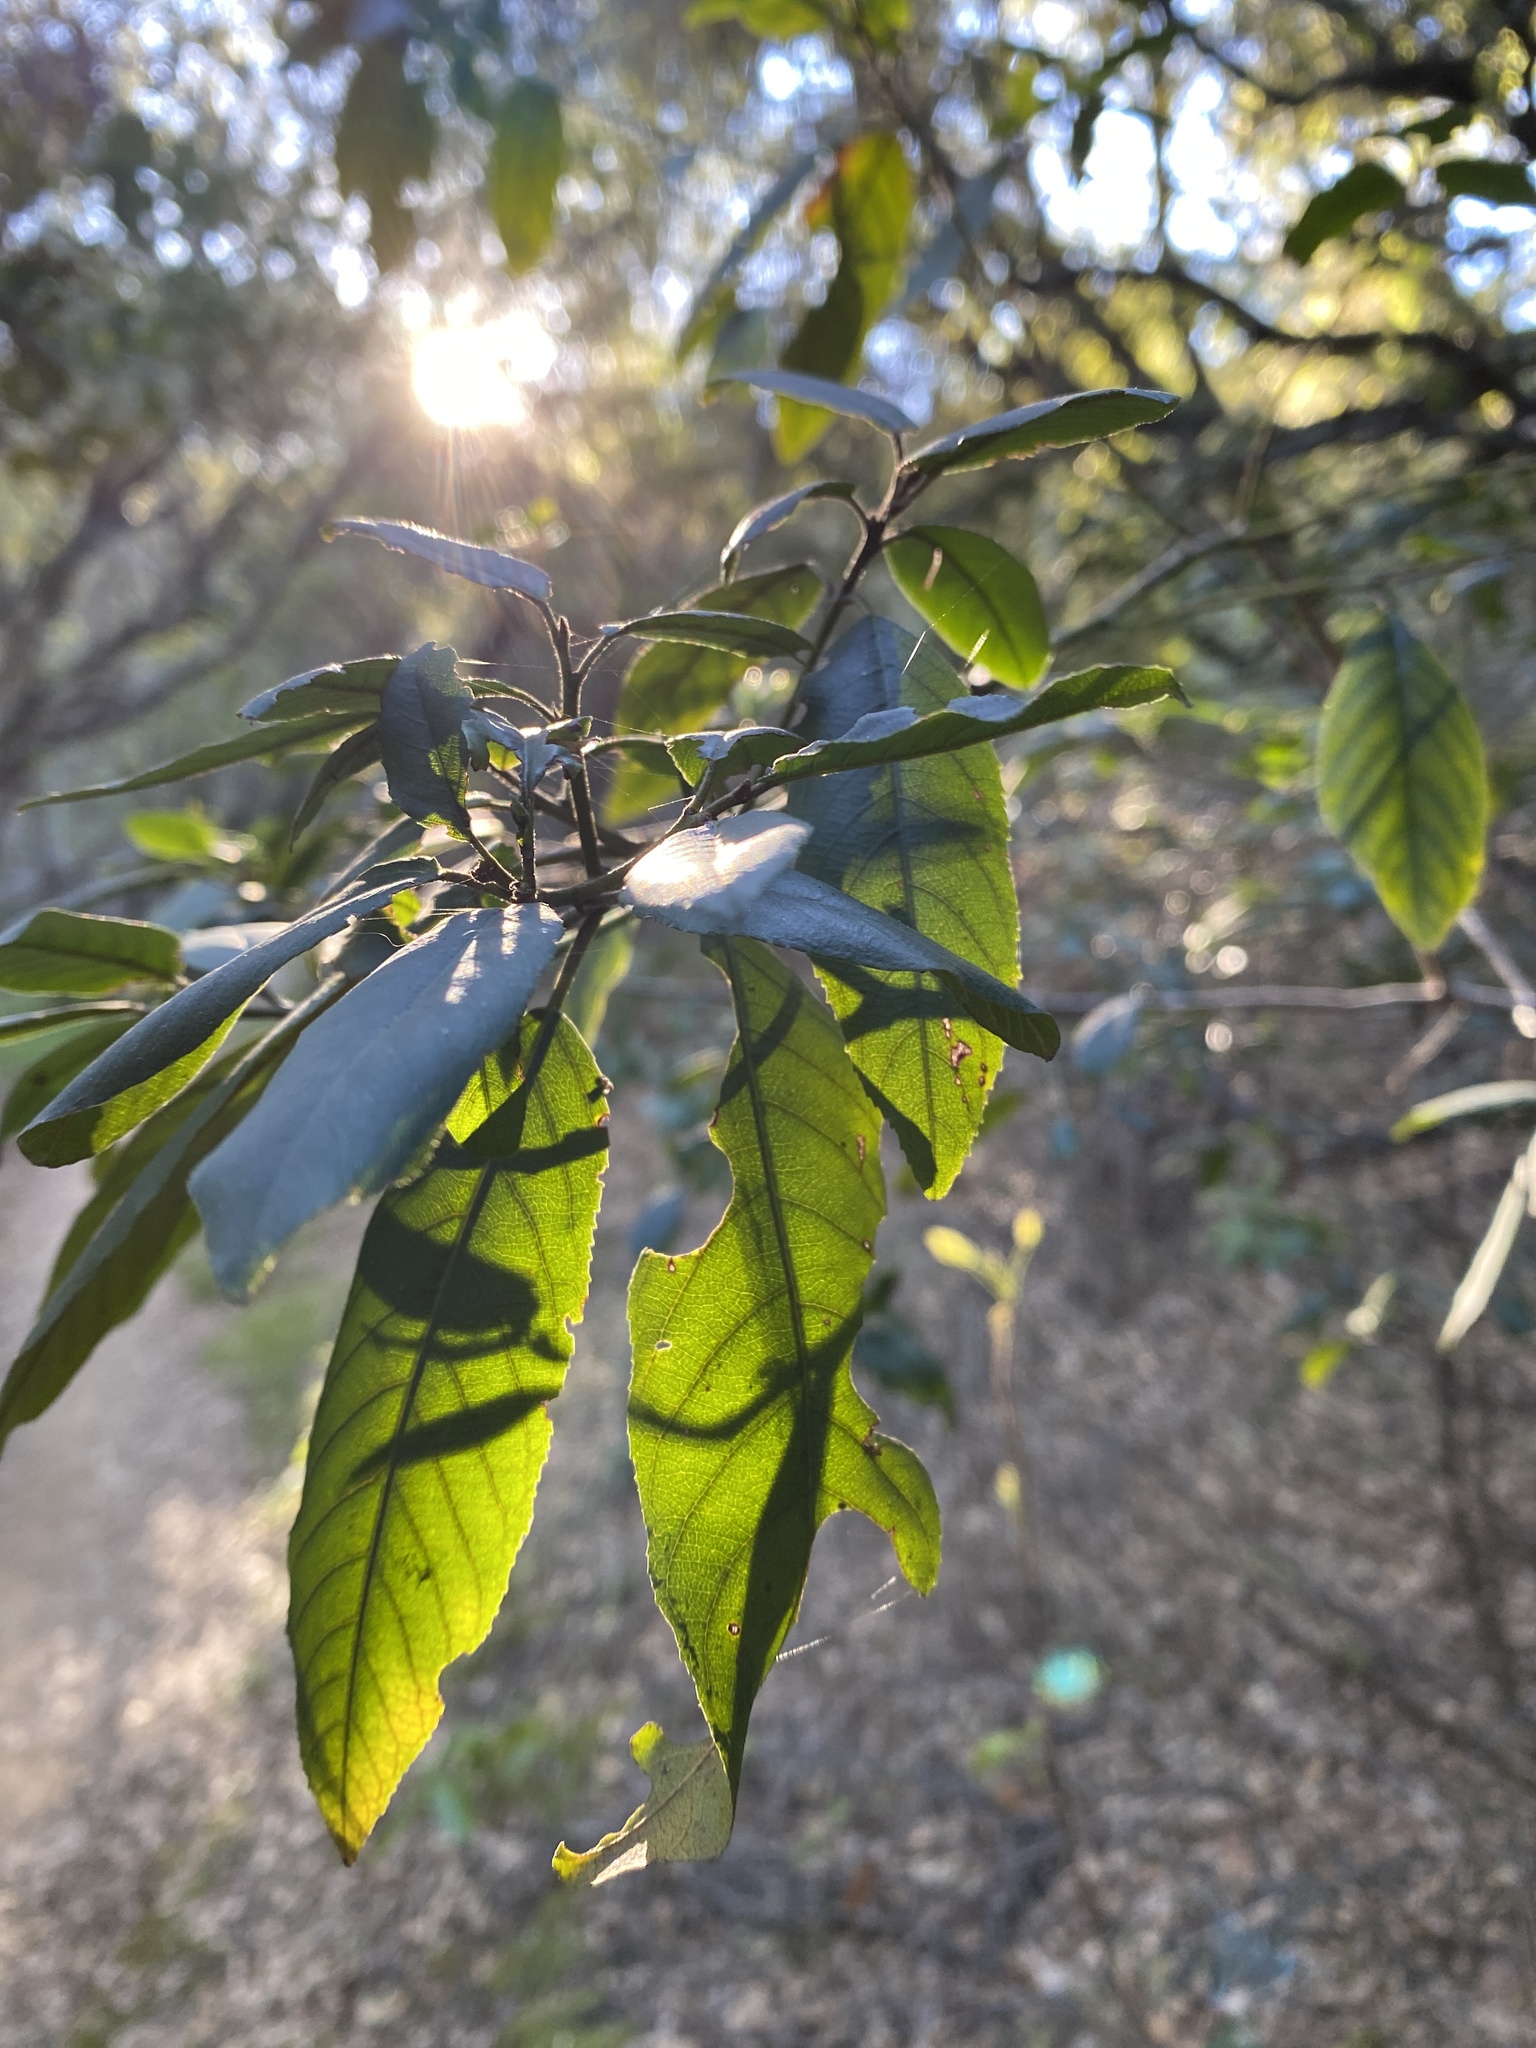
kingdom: Plantae
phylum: Tracheophyta
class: Magnoliopsida
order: Rosales
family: Rhamnaceae
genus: Frangula
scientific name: Frangula californica
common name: California buckthorn
